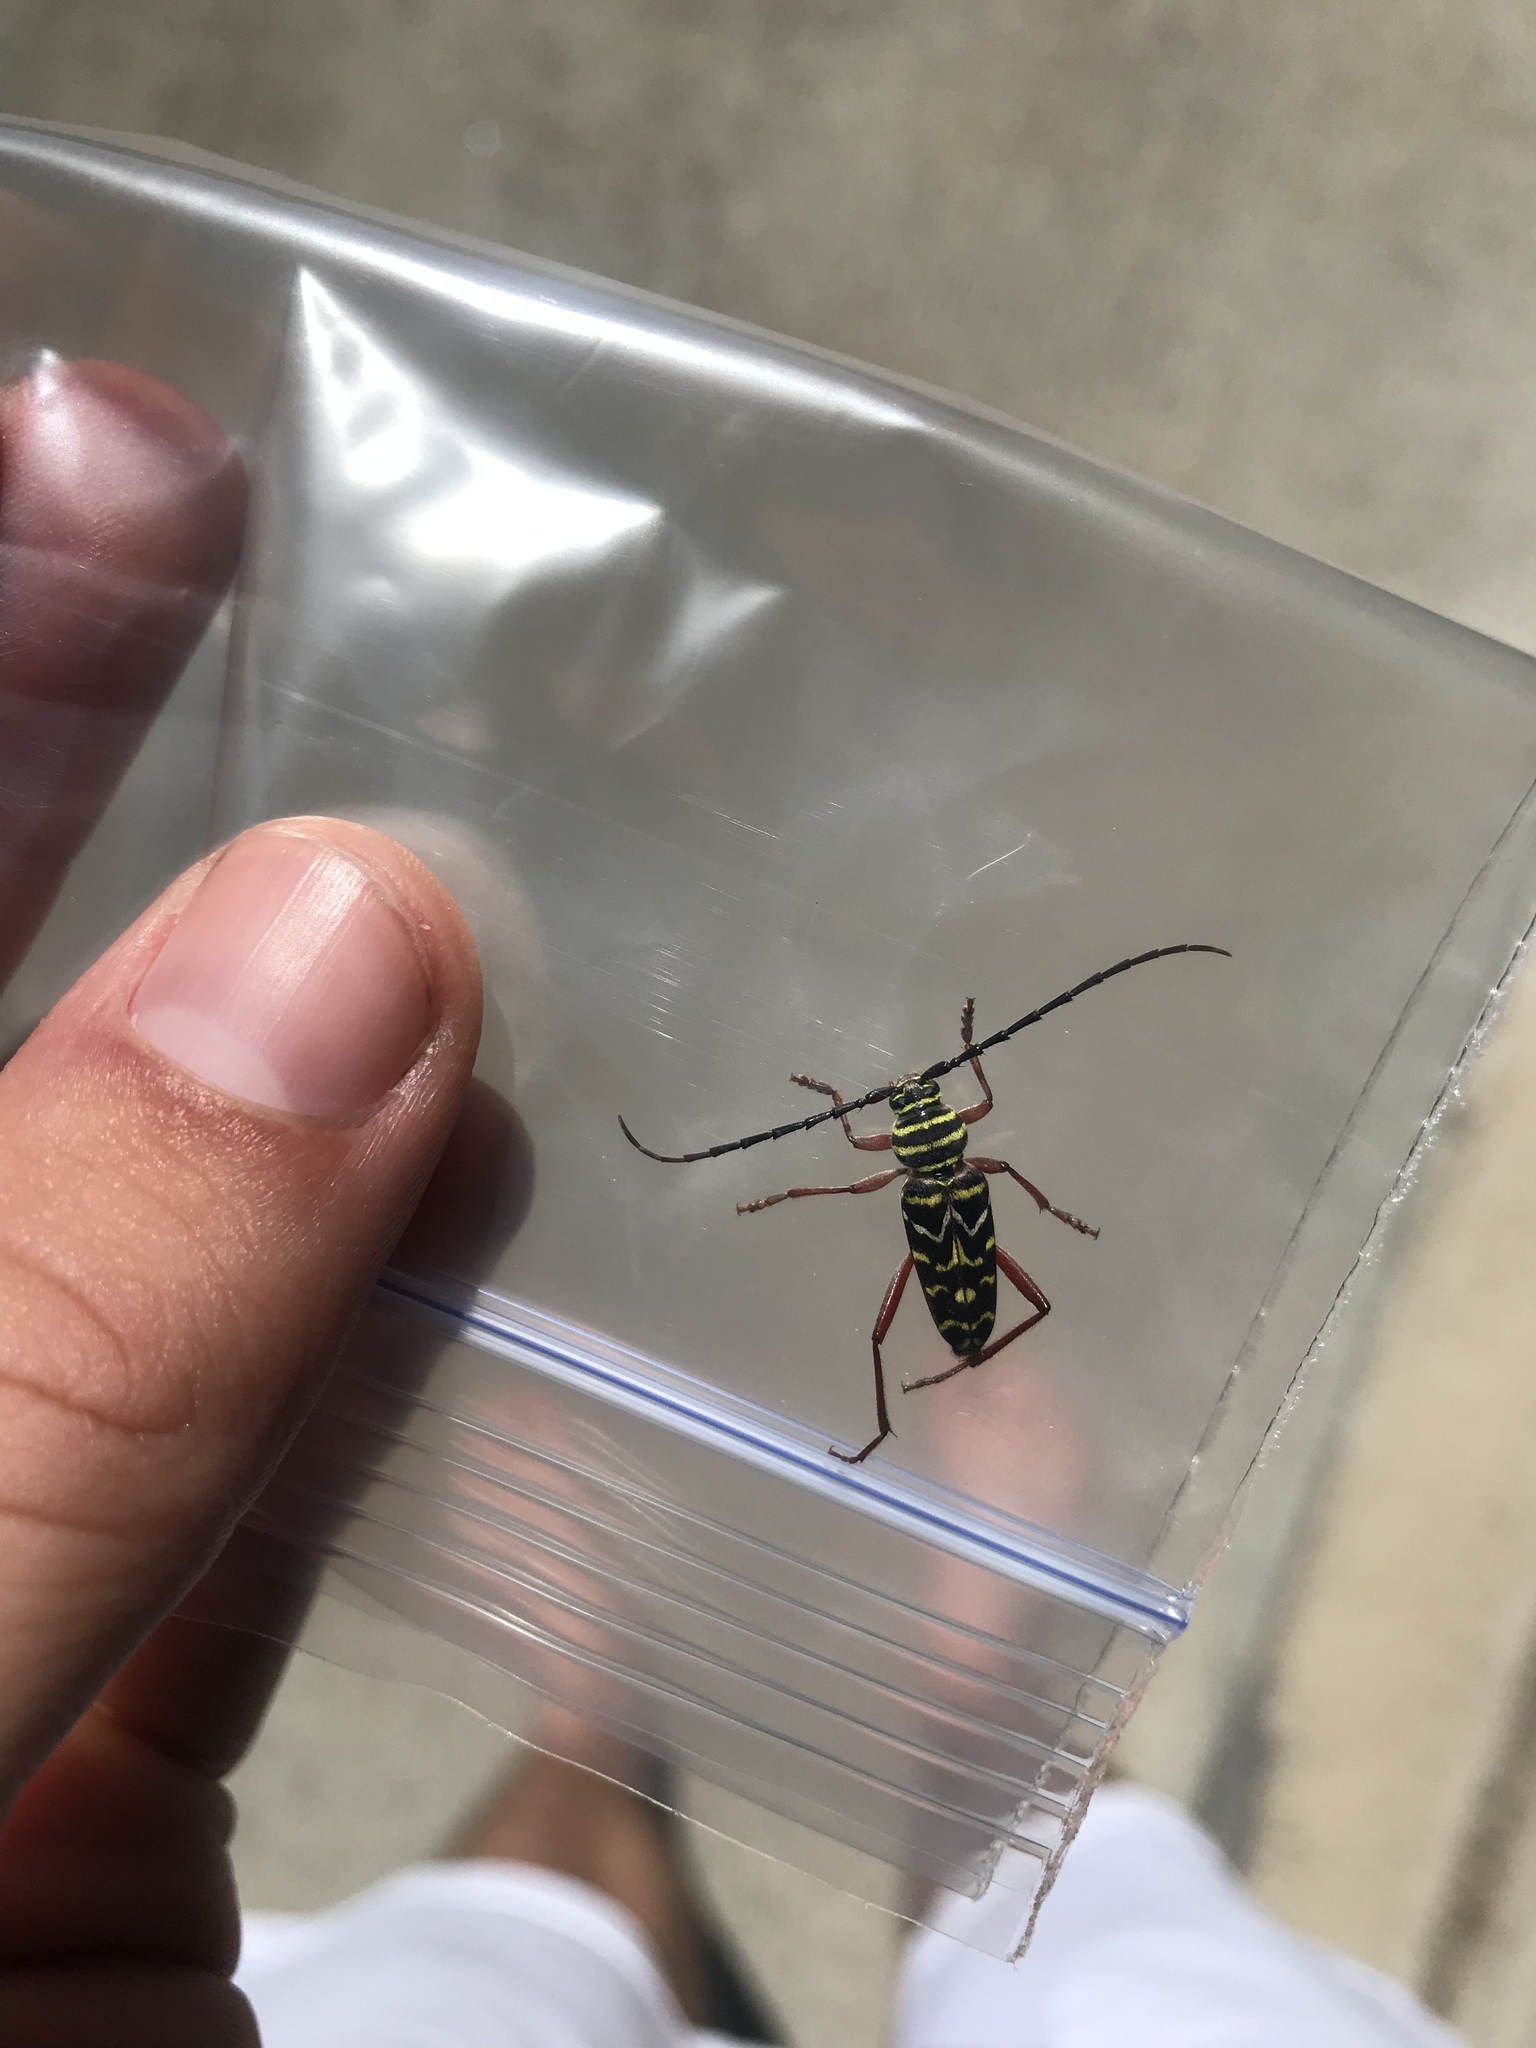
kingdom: Animalia
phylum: Arthropoda
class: Insecta
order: Coleoptera
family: Cerambycidae
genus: Megacyllene
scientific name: Megacyllene caryae
